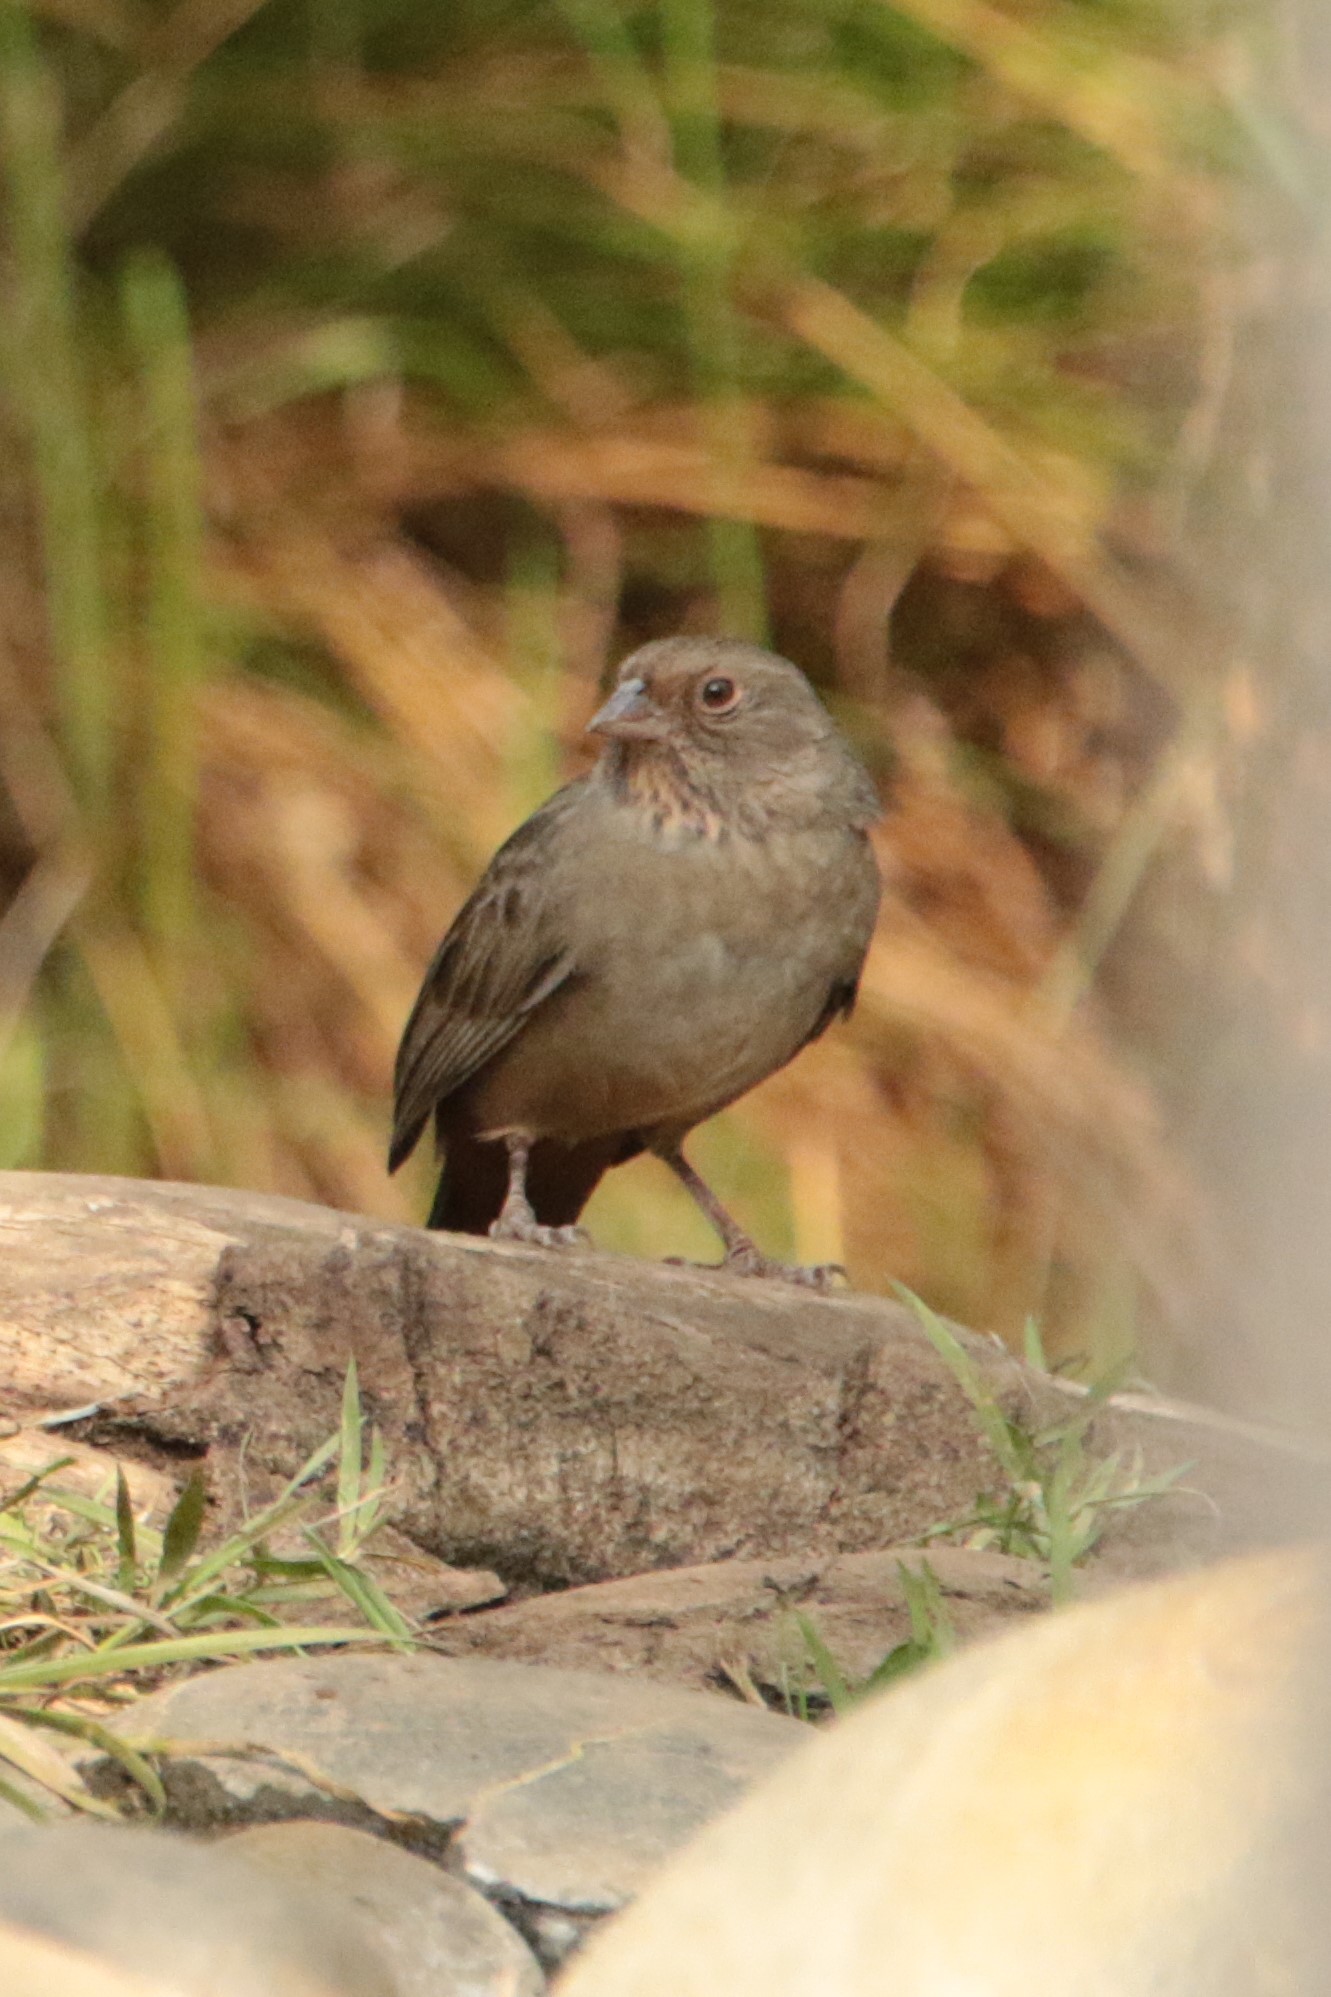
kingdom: Animalia
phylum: Chordata
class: Aves
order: Passeriformes
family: Passerellidae
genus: Melozone
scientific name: Melozone crissalis
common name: California towhee
